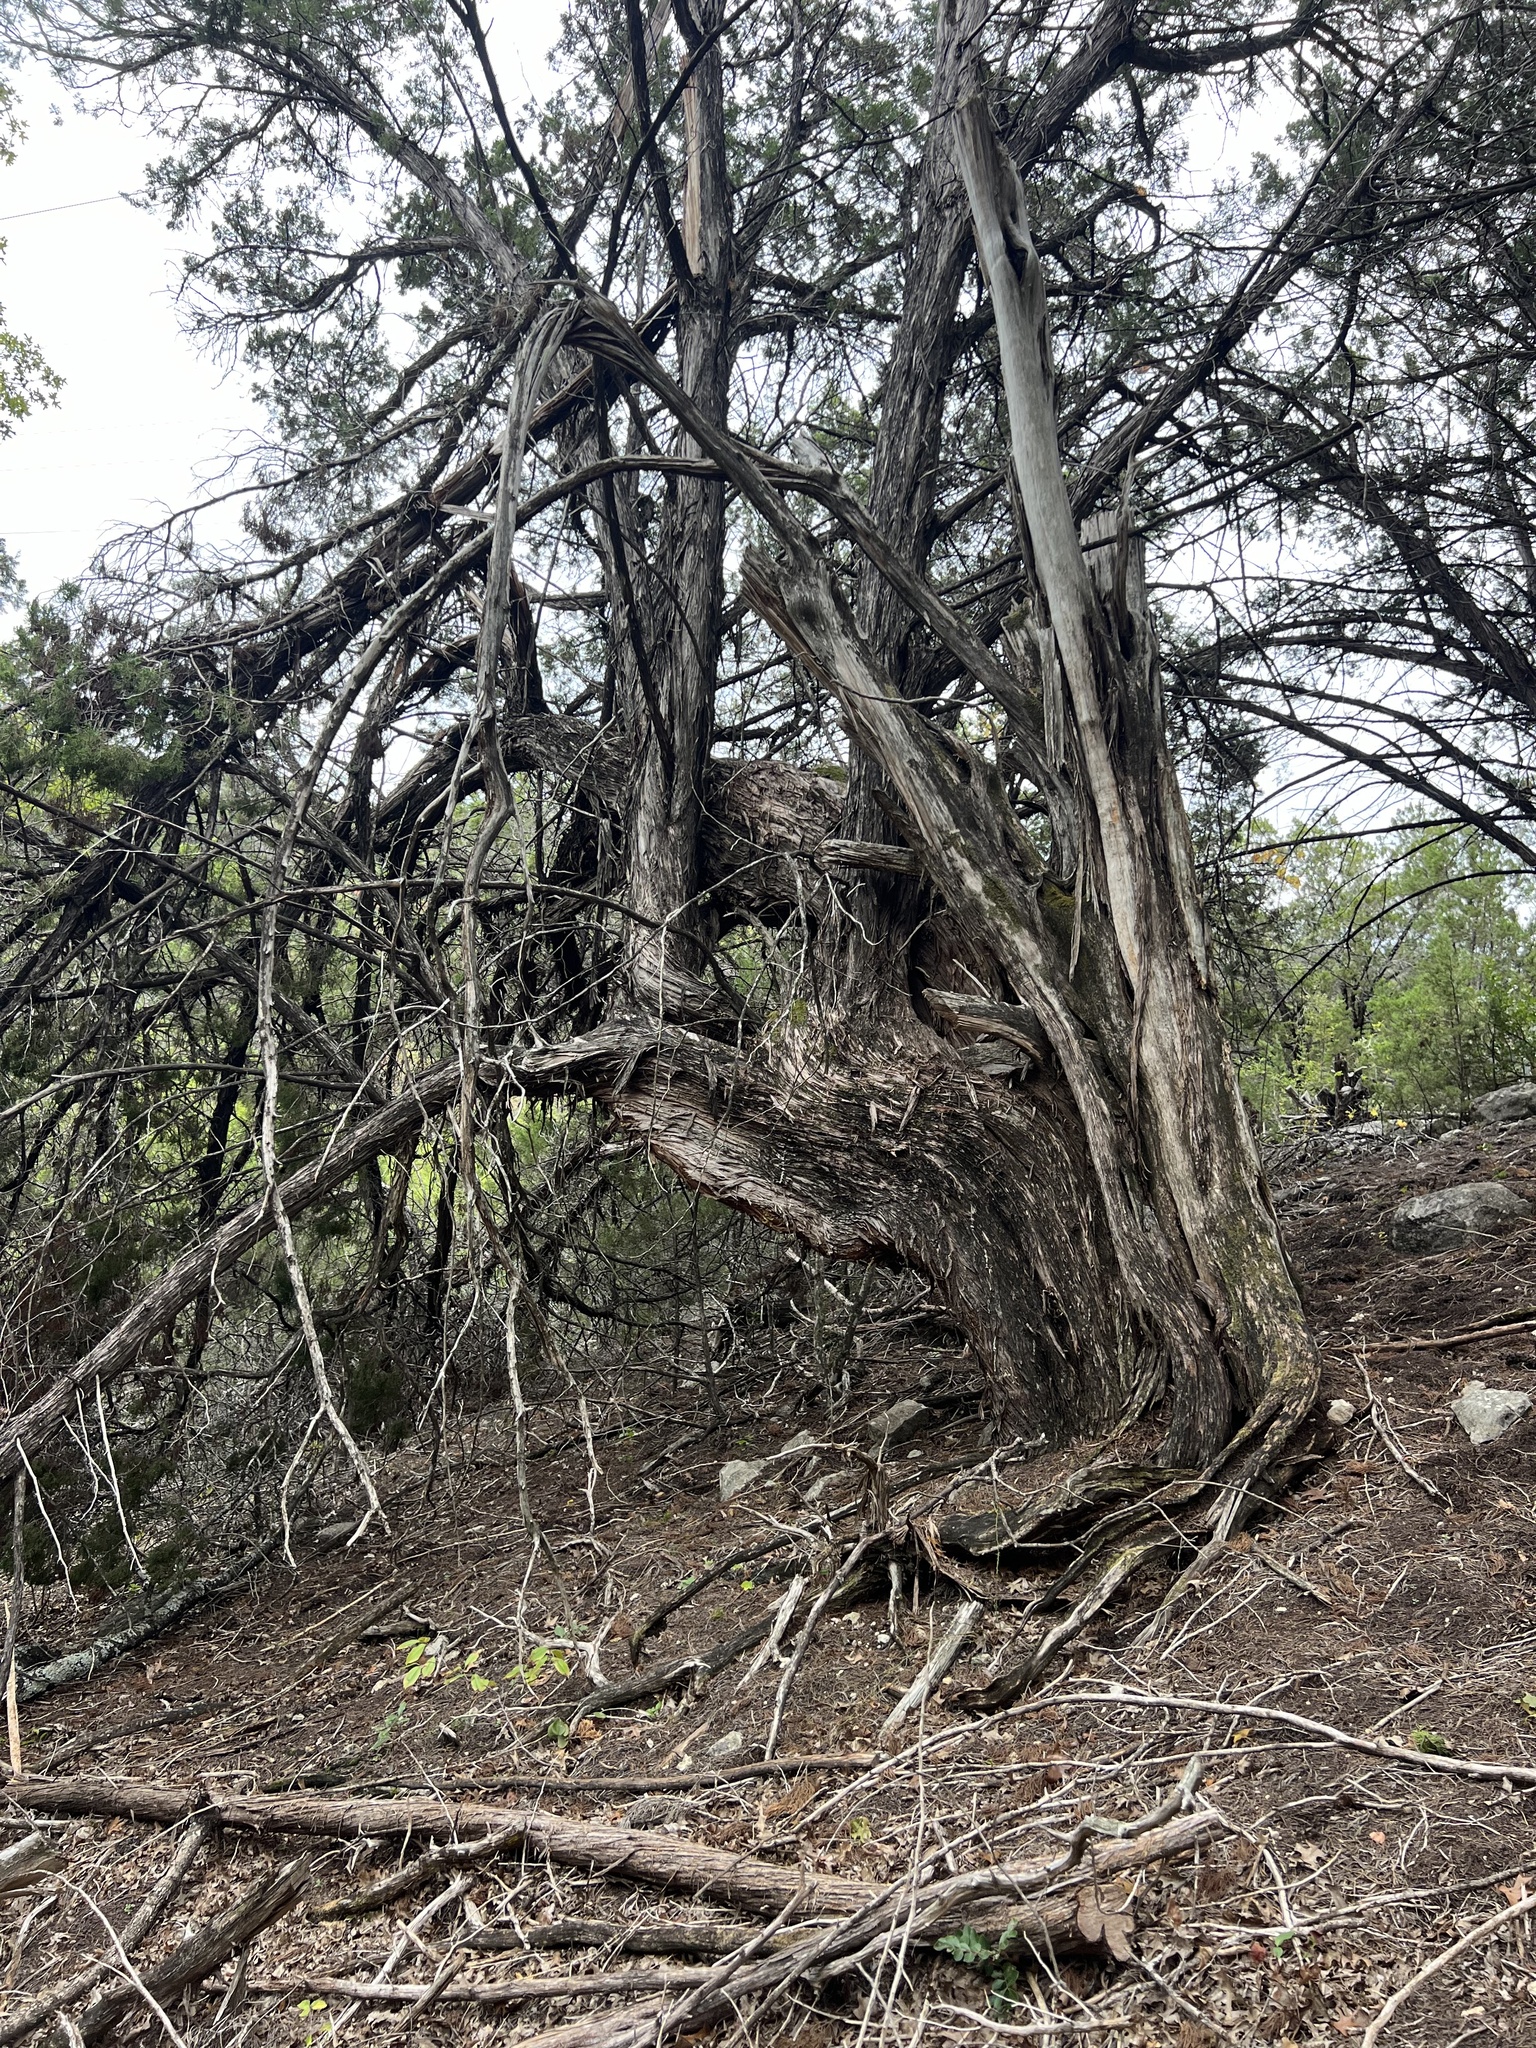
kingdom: Plantae
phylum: Tracheophyta
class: Pinopsida
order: Pinales
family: Cupressaceae
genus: Juniperus
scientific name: Juniperus ashei
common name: Mexican juniper
